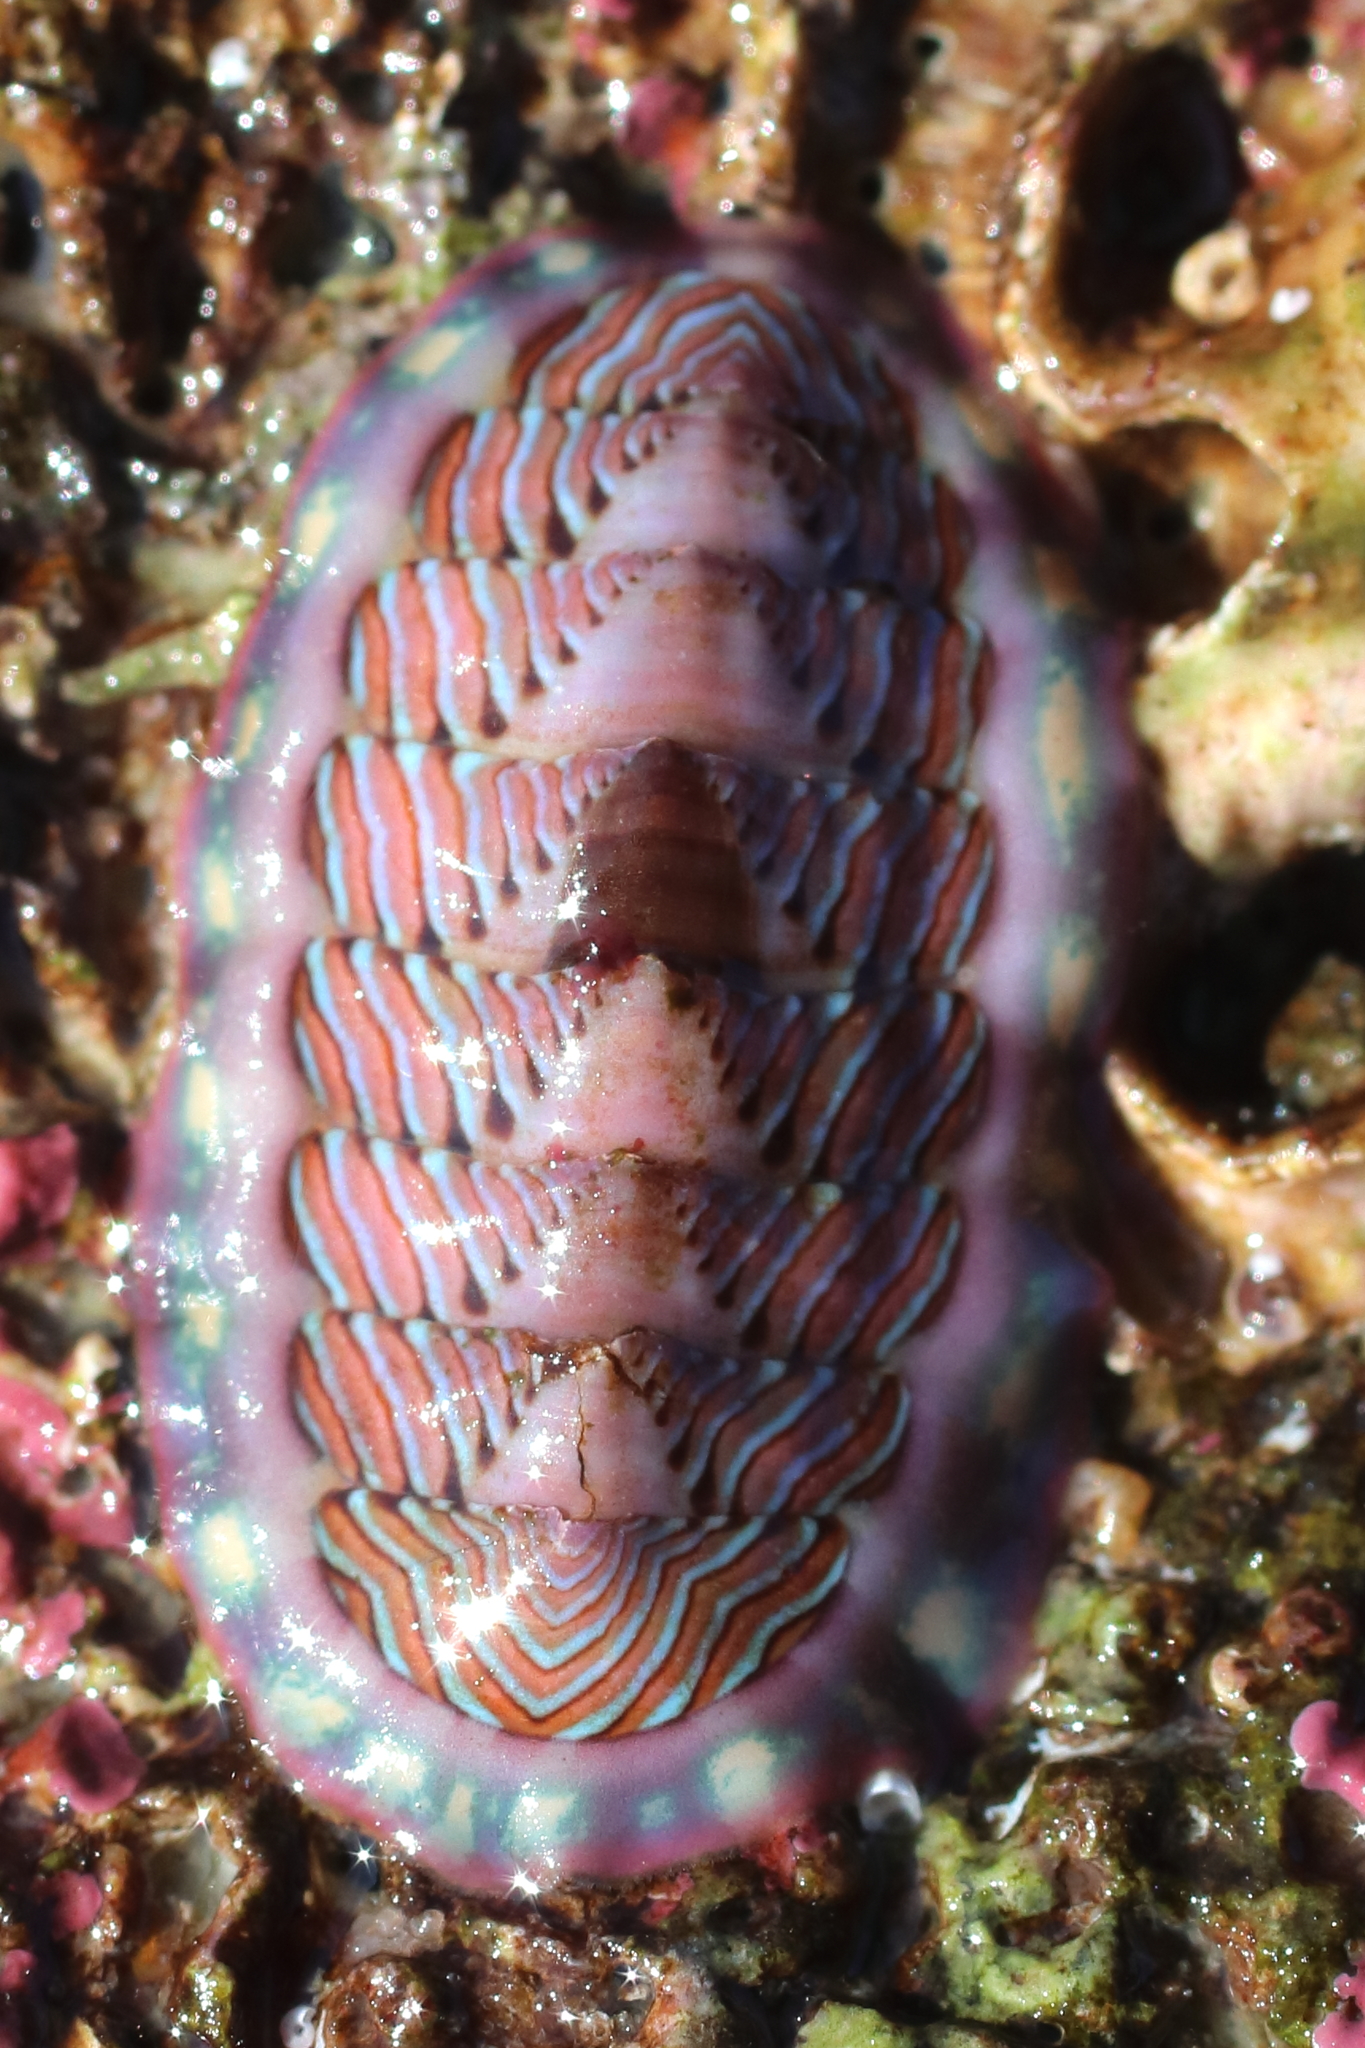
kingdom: Animalia
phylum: Mollusca
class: Polyplacophora
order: Chitonida
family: Tonicellidae
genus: Tonicella
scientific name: Tonicella lineata
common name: Lined chiton
